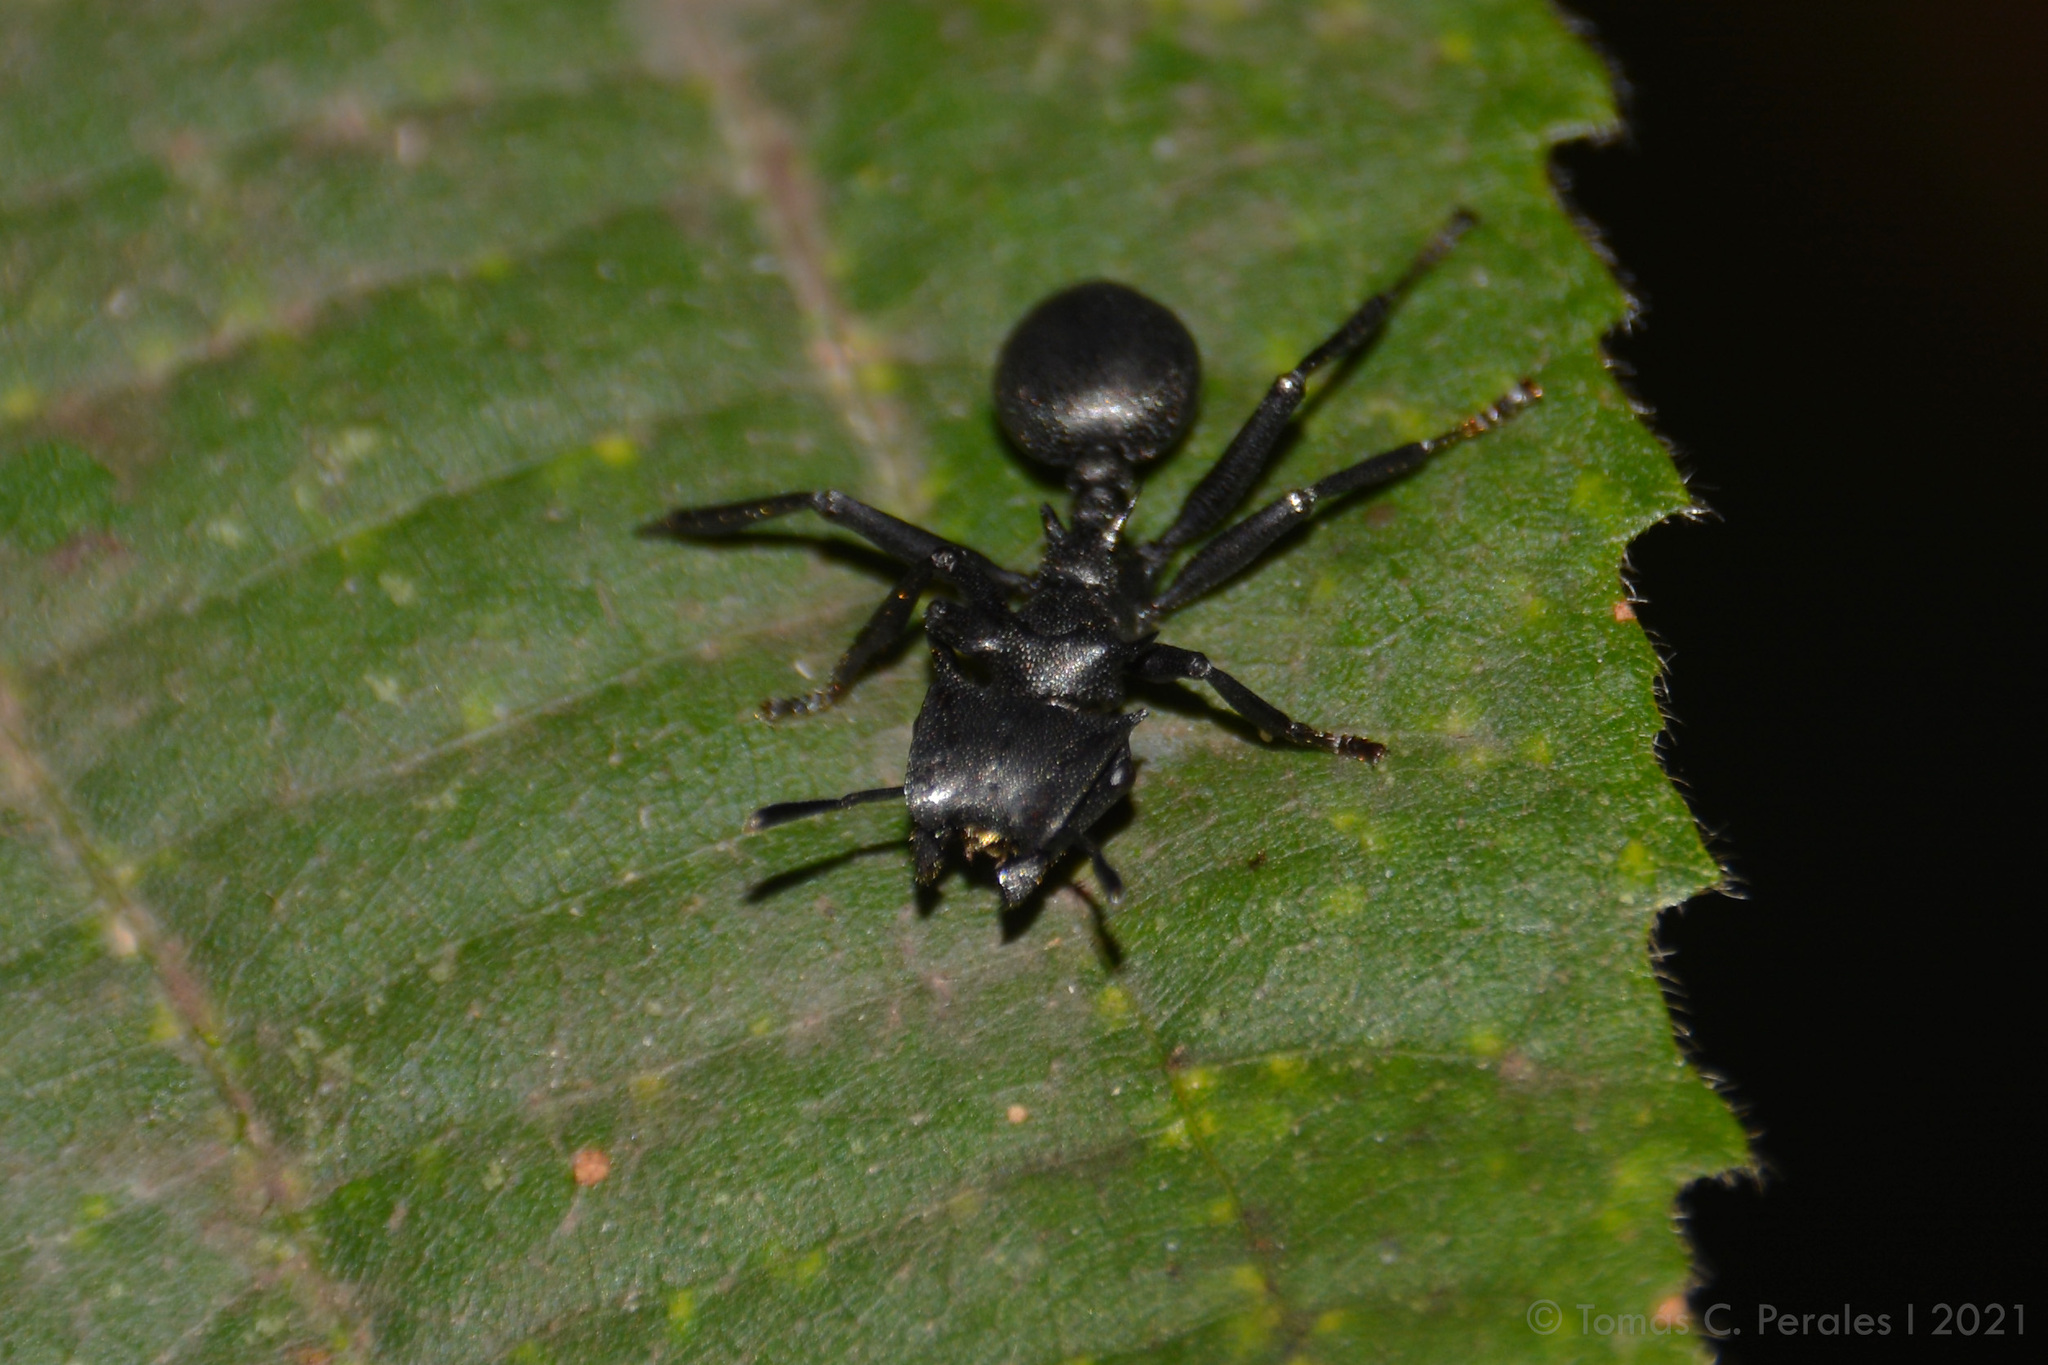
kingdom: Animalia
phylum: Arthropoda
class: Insecta
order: Hymenoptera
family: Formicidae
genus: Cephalotes
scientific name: Cephalotes atratus
